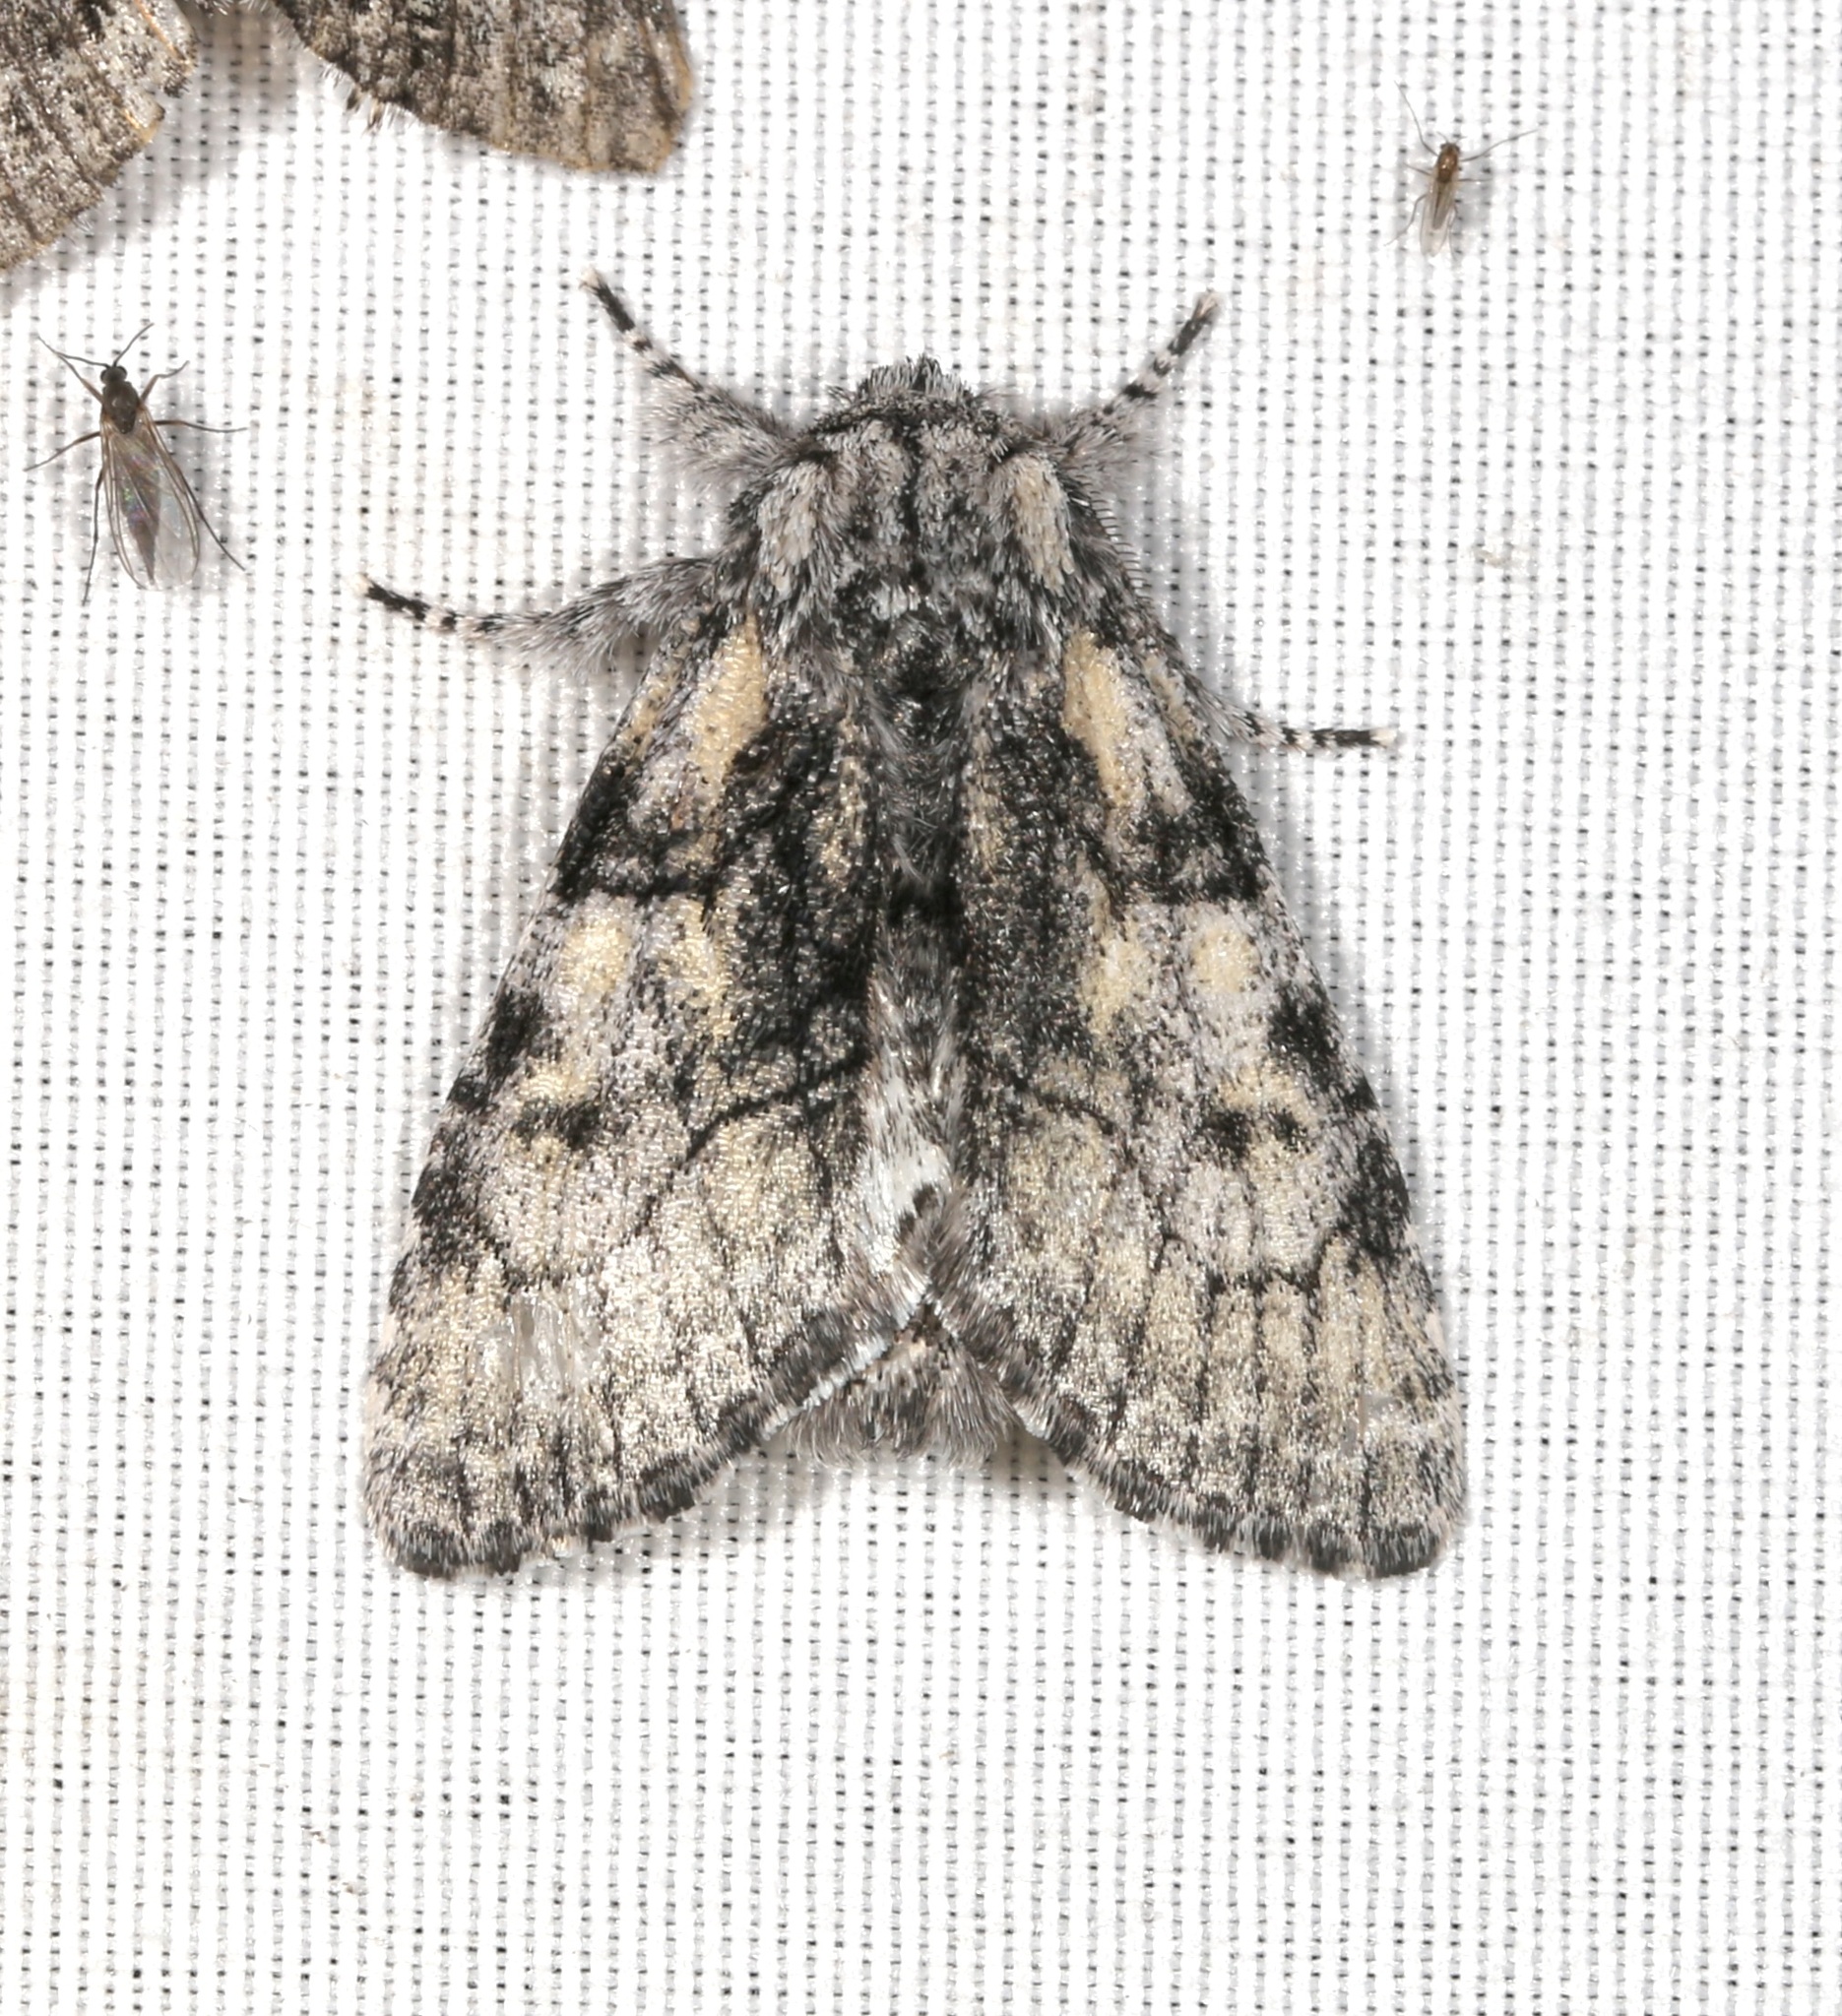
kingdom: Animalia
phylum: Arthropoda
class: Insecta
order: Lepidoptera
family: Noctuidae
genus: Raphia
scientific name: Raphia frater
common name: Brother
